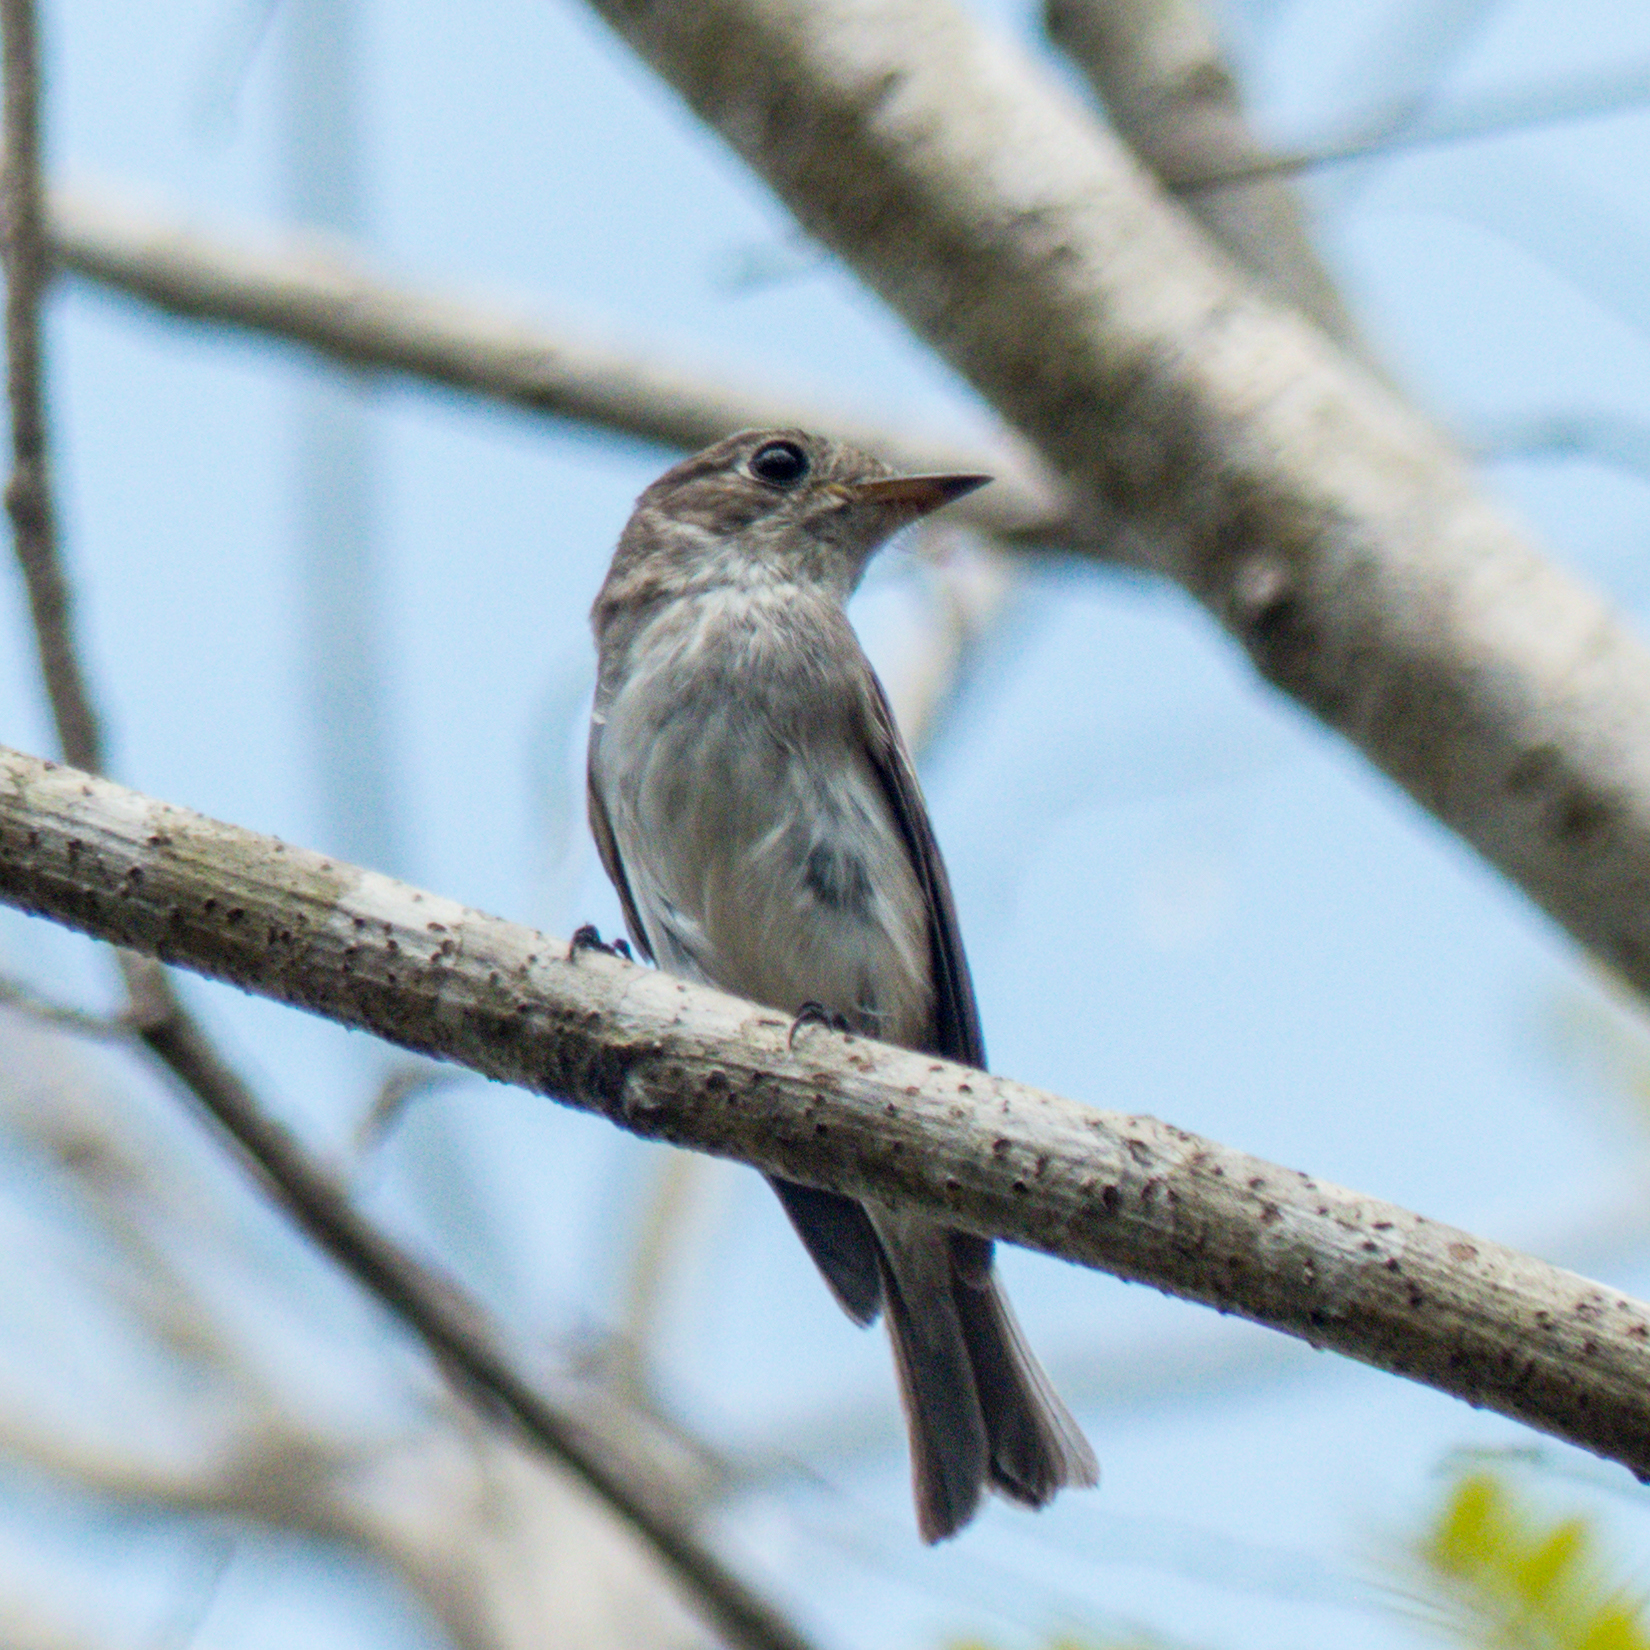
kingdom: Animalia
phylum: Chordata
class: Aves
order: Passeriformes
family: Muscicapidae
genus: Muscicapa
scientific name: Muscicapa latirostris
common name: Asian brown flycatcher
